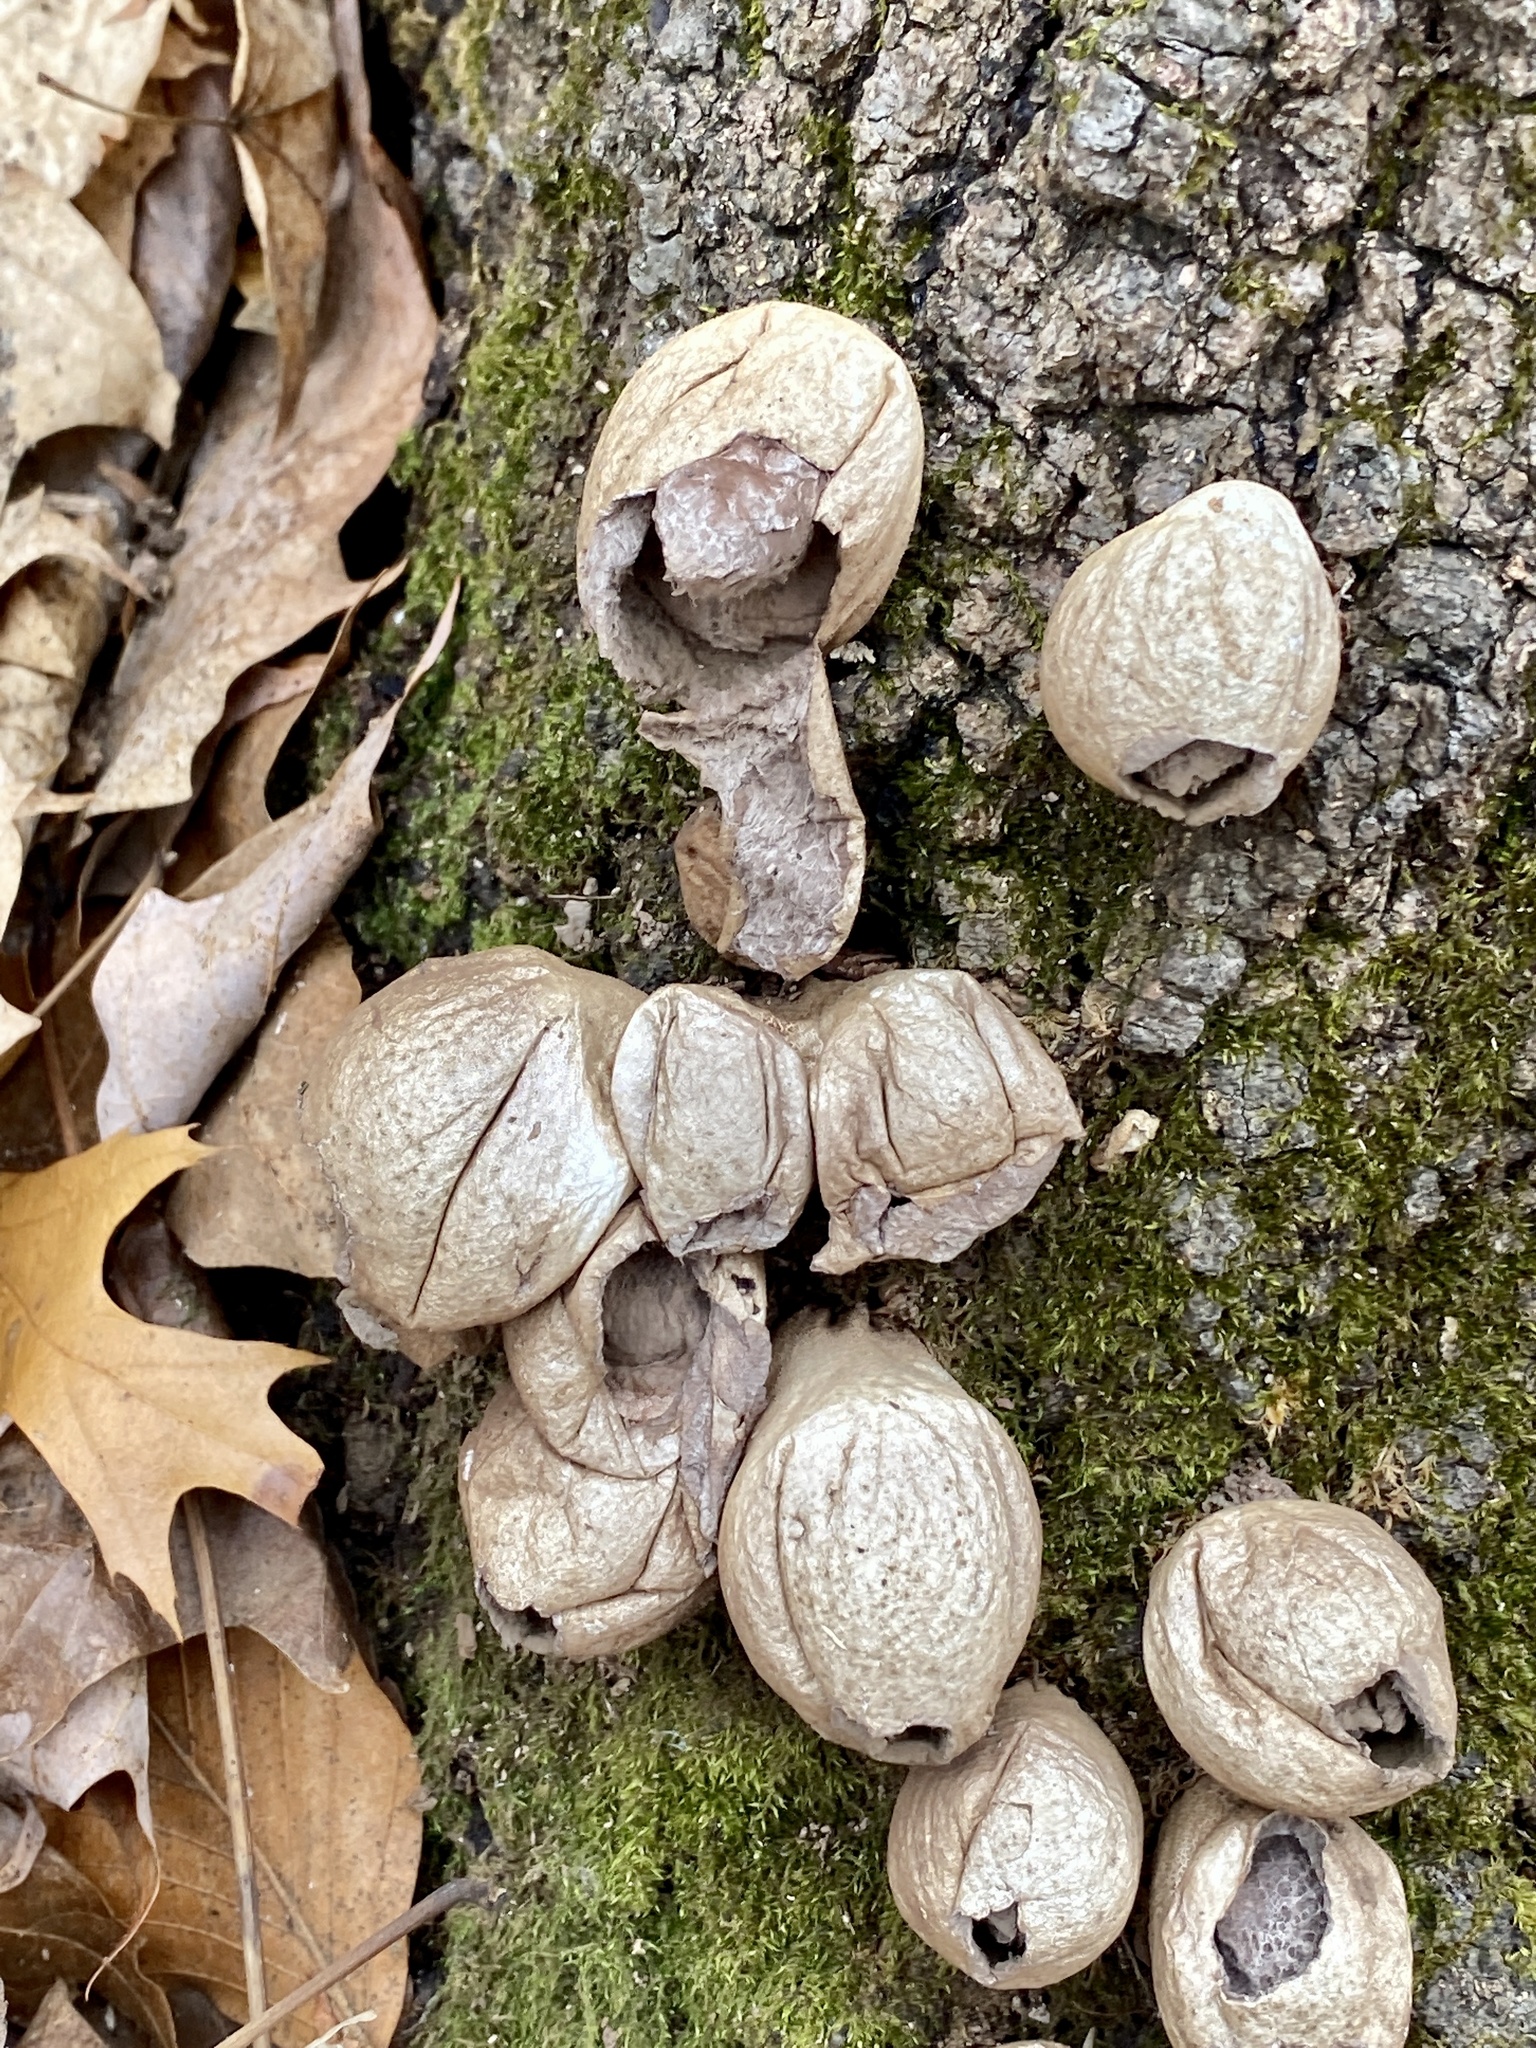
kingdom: Fungi
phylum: Basidiomycota
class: Agaricomycetes
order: Agaricales
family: Lycoperdaceae
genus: Apioperdon
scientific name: Apioperdon pyriforme
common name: Pear-shaped puffball
